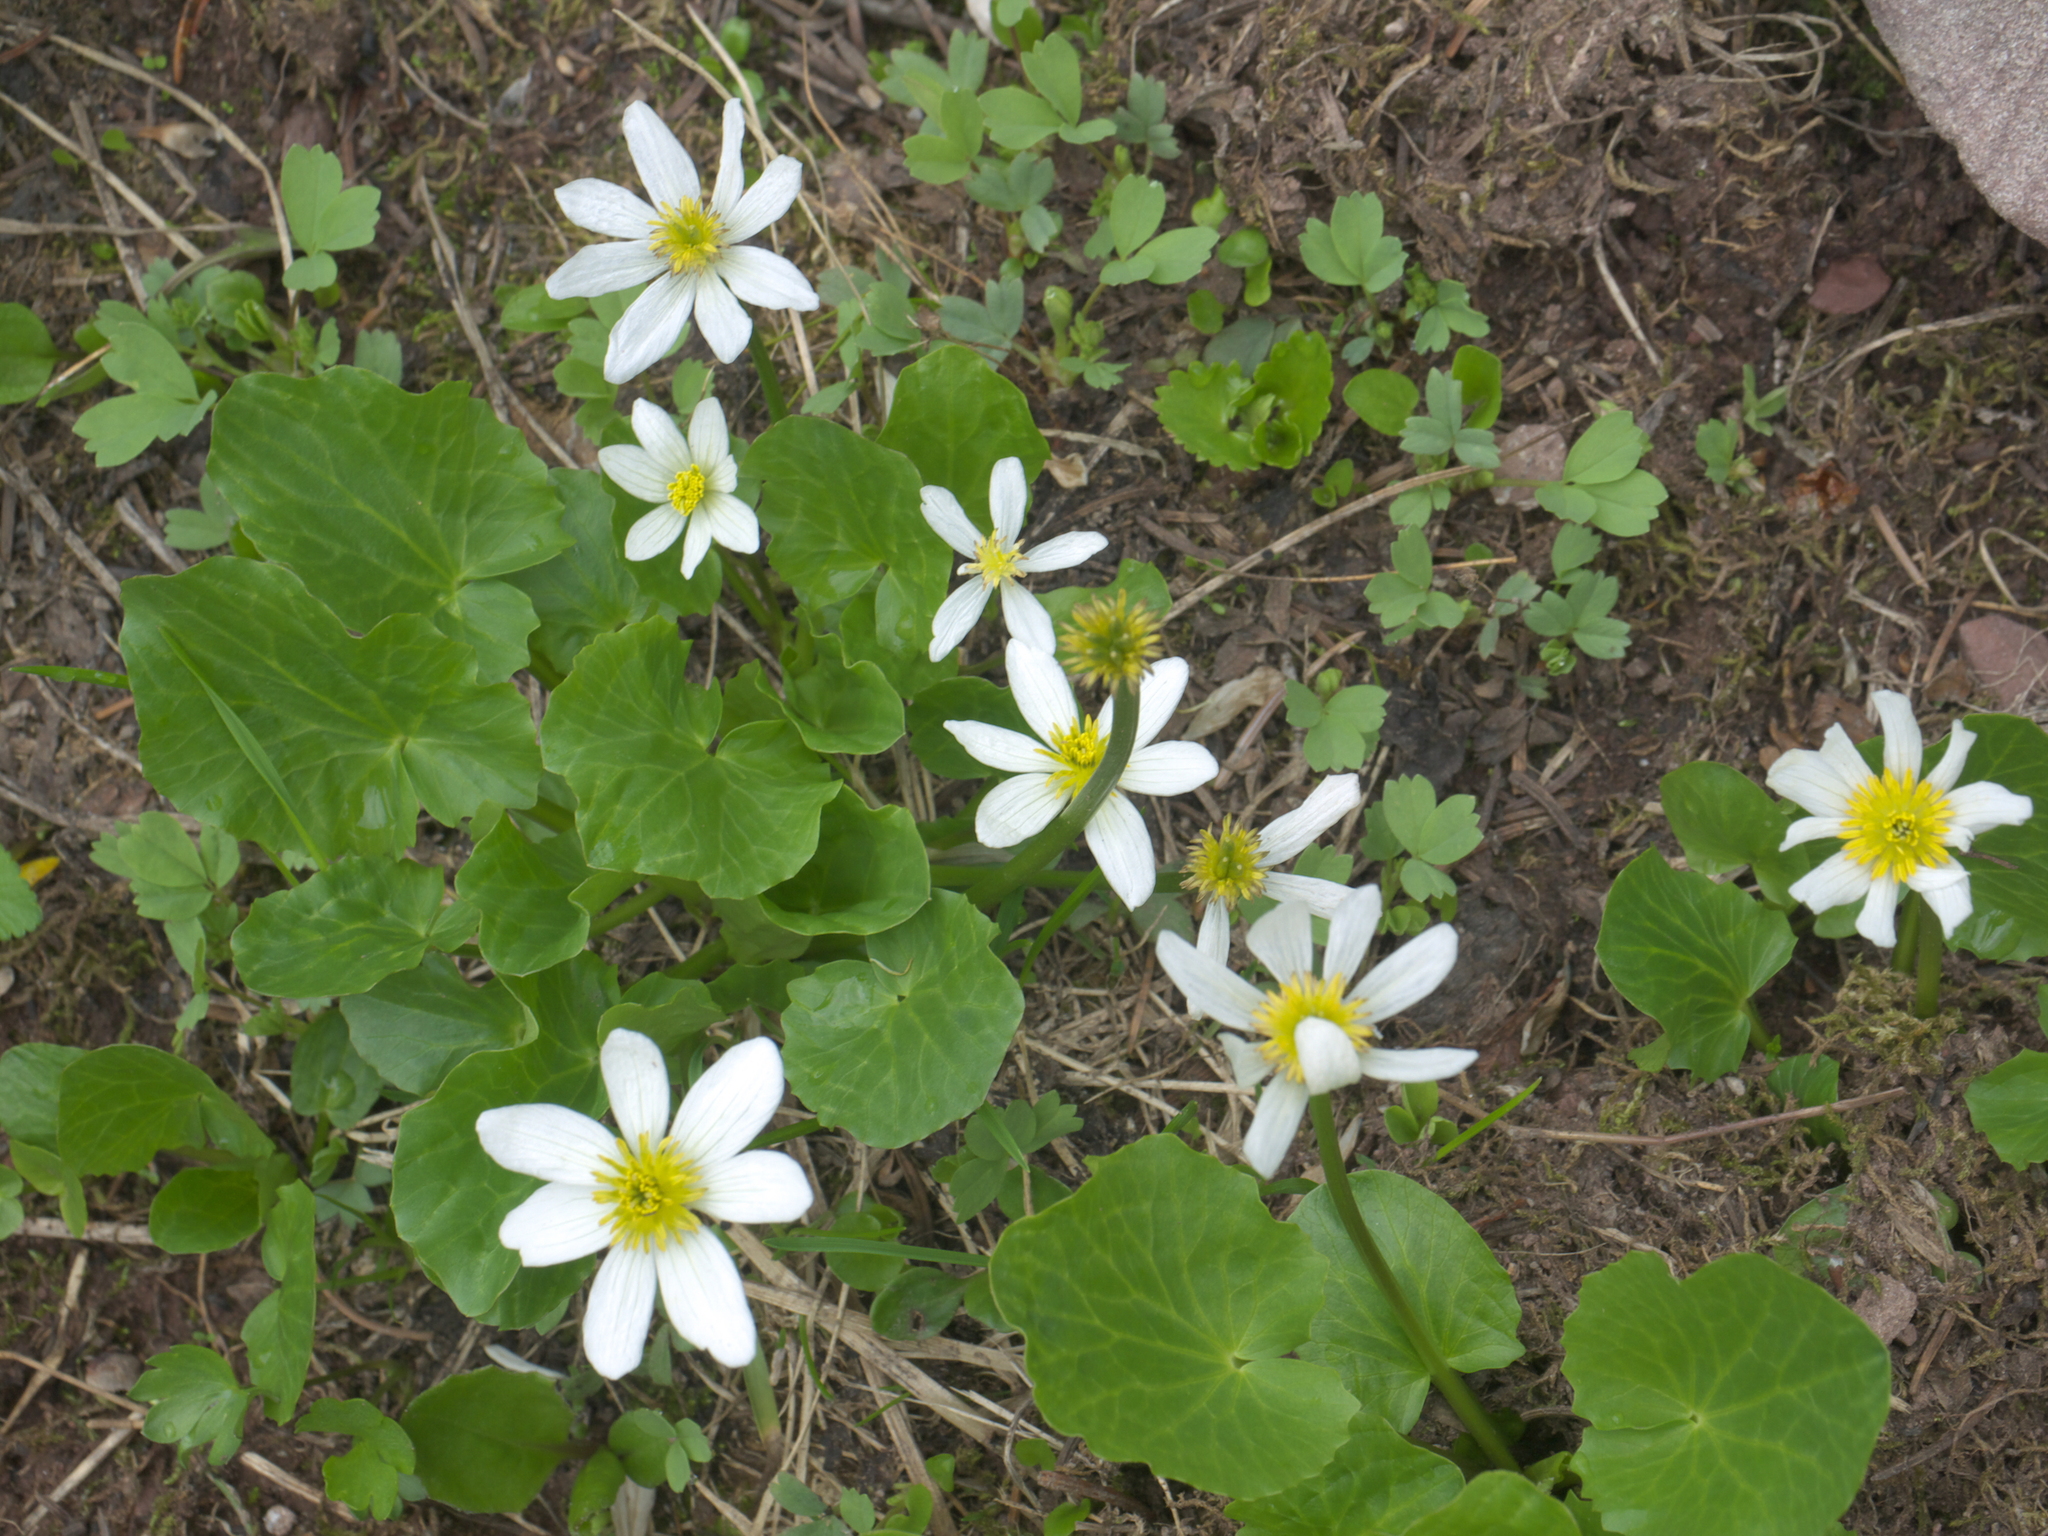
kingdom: Plantae
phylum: Tracheophyta
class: Magnoliopsida
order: Ranunculales
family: Ranunculaceae
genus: Caltha
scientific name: Caltha leptosepala
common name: Elkslip
